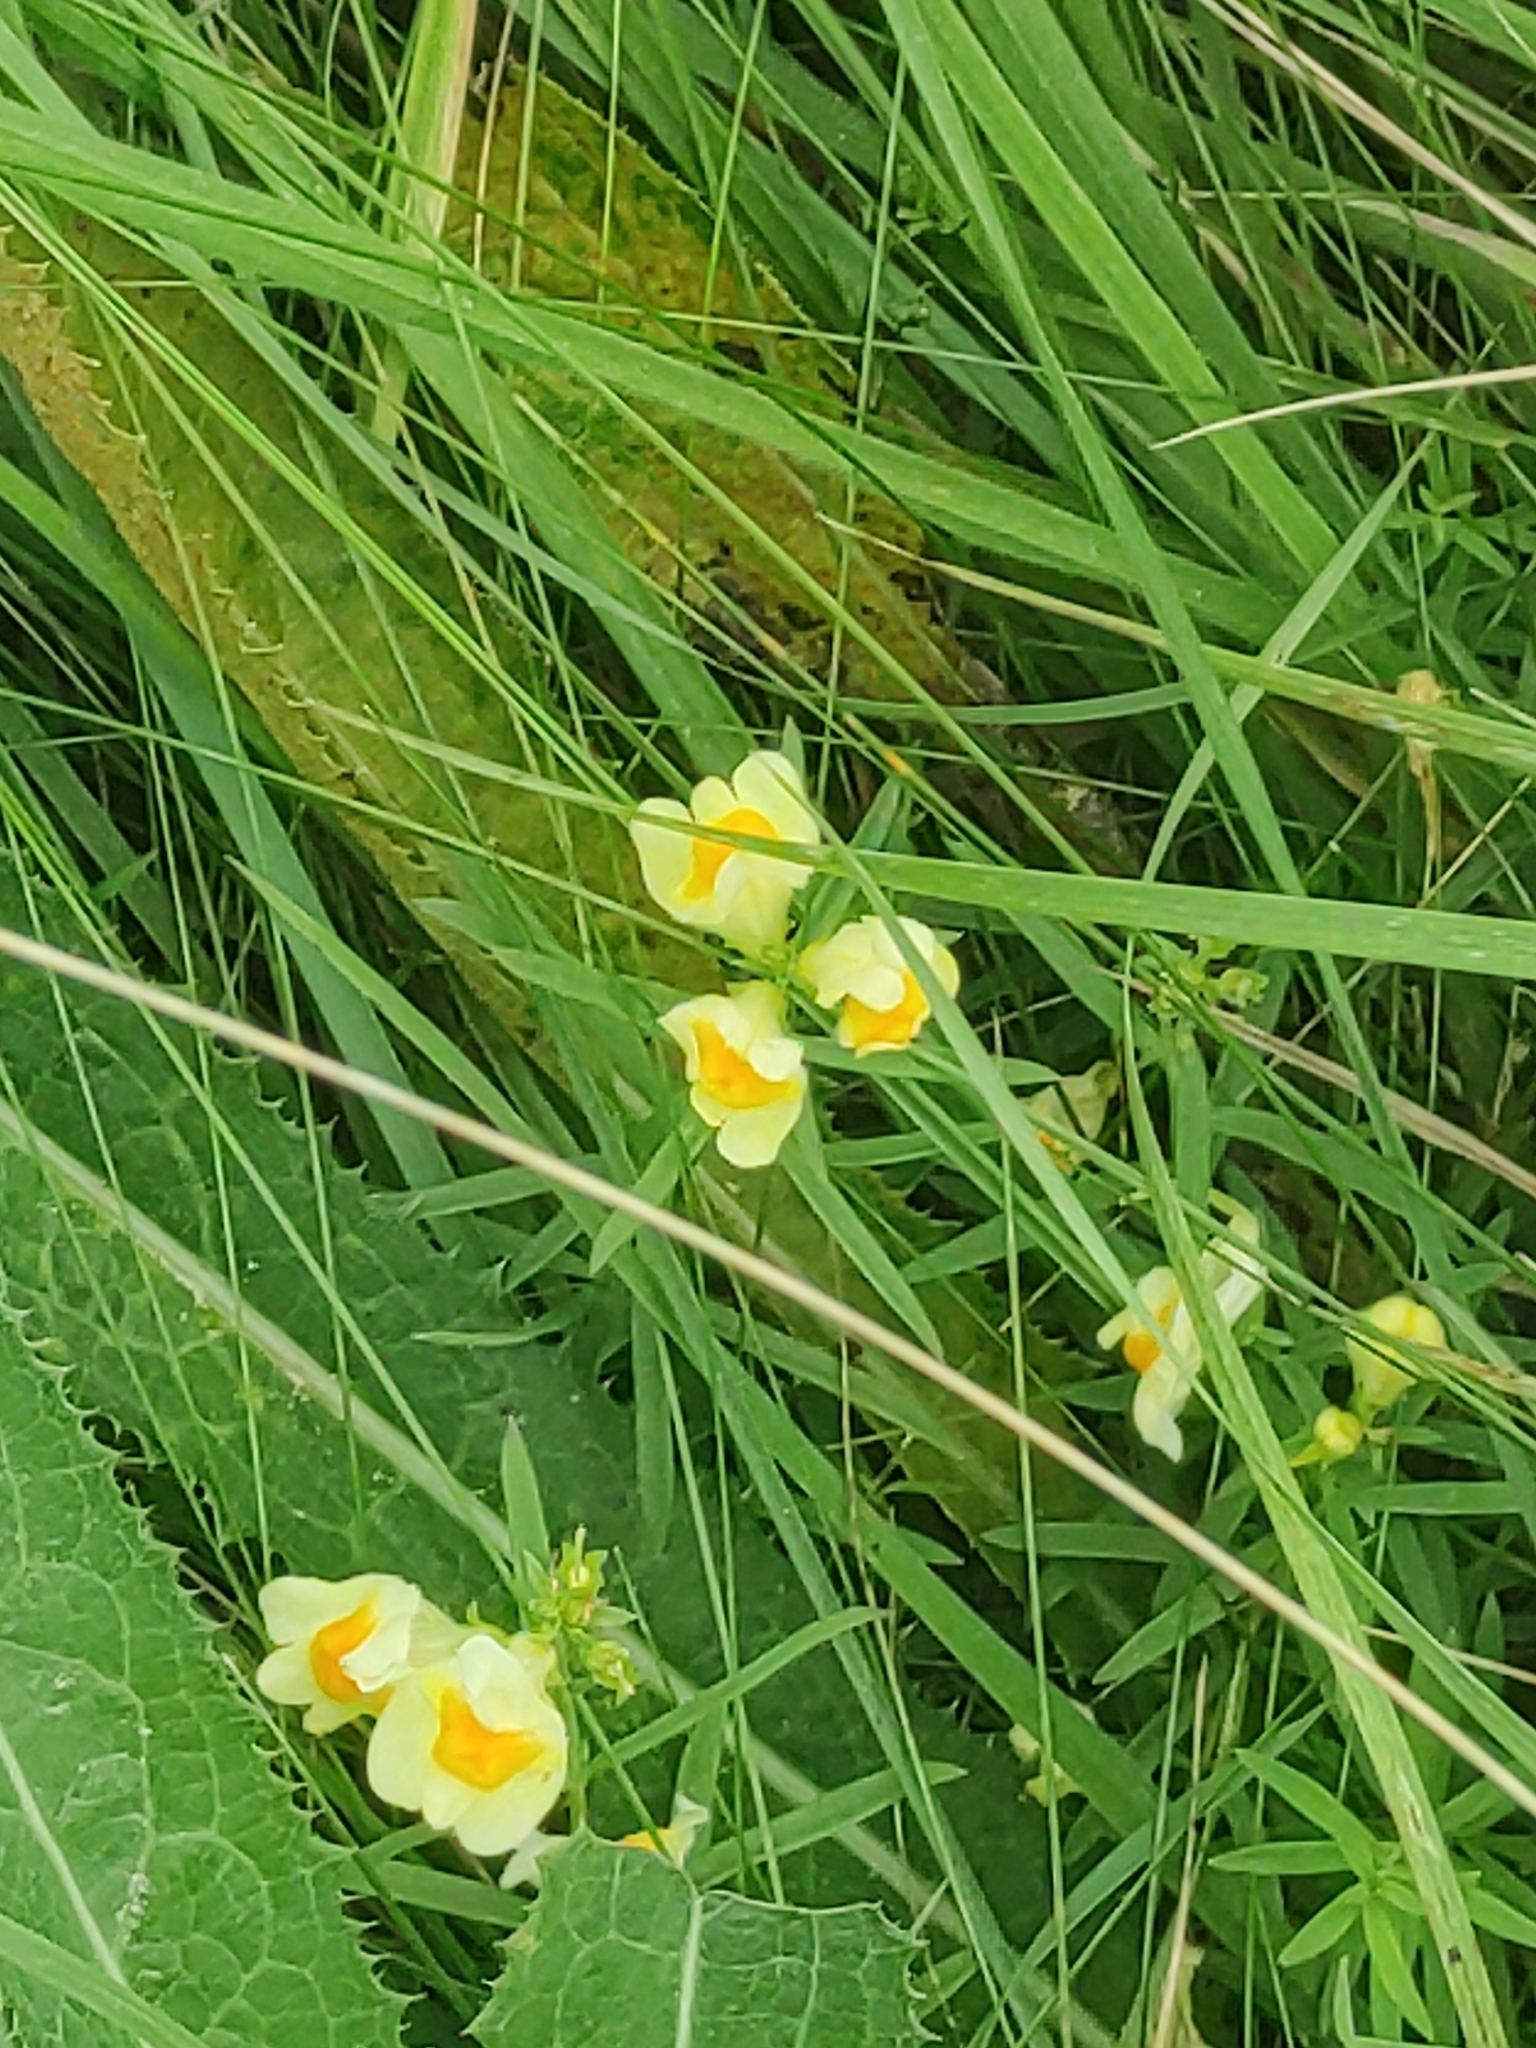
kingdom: Plantae
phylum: Tracheophyta
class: Magnoliopsida
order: Lamiales
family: Plantaginaceae
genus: Linaria
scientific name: Linaria vulgaris
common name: Butter and eggs
